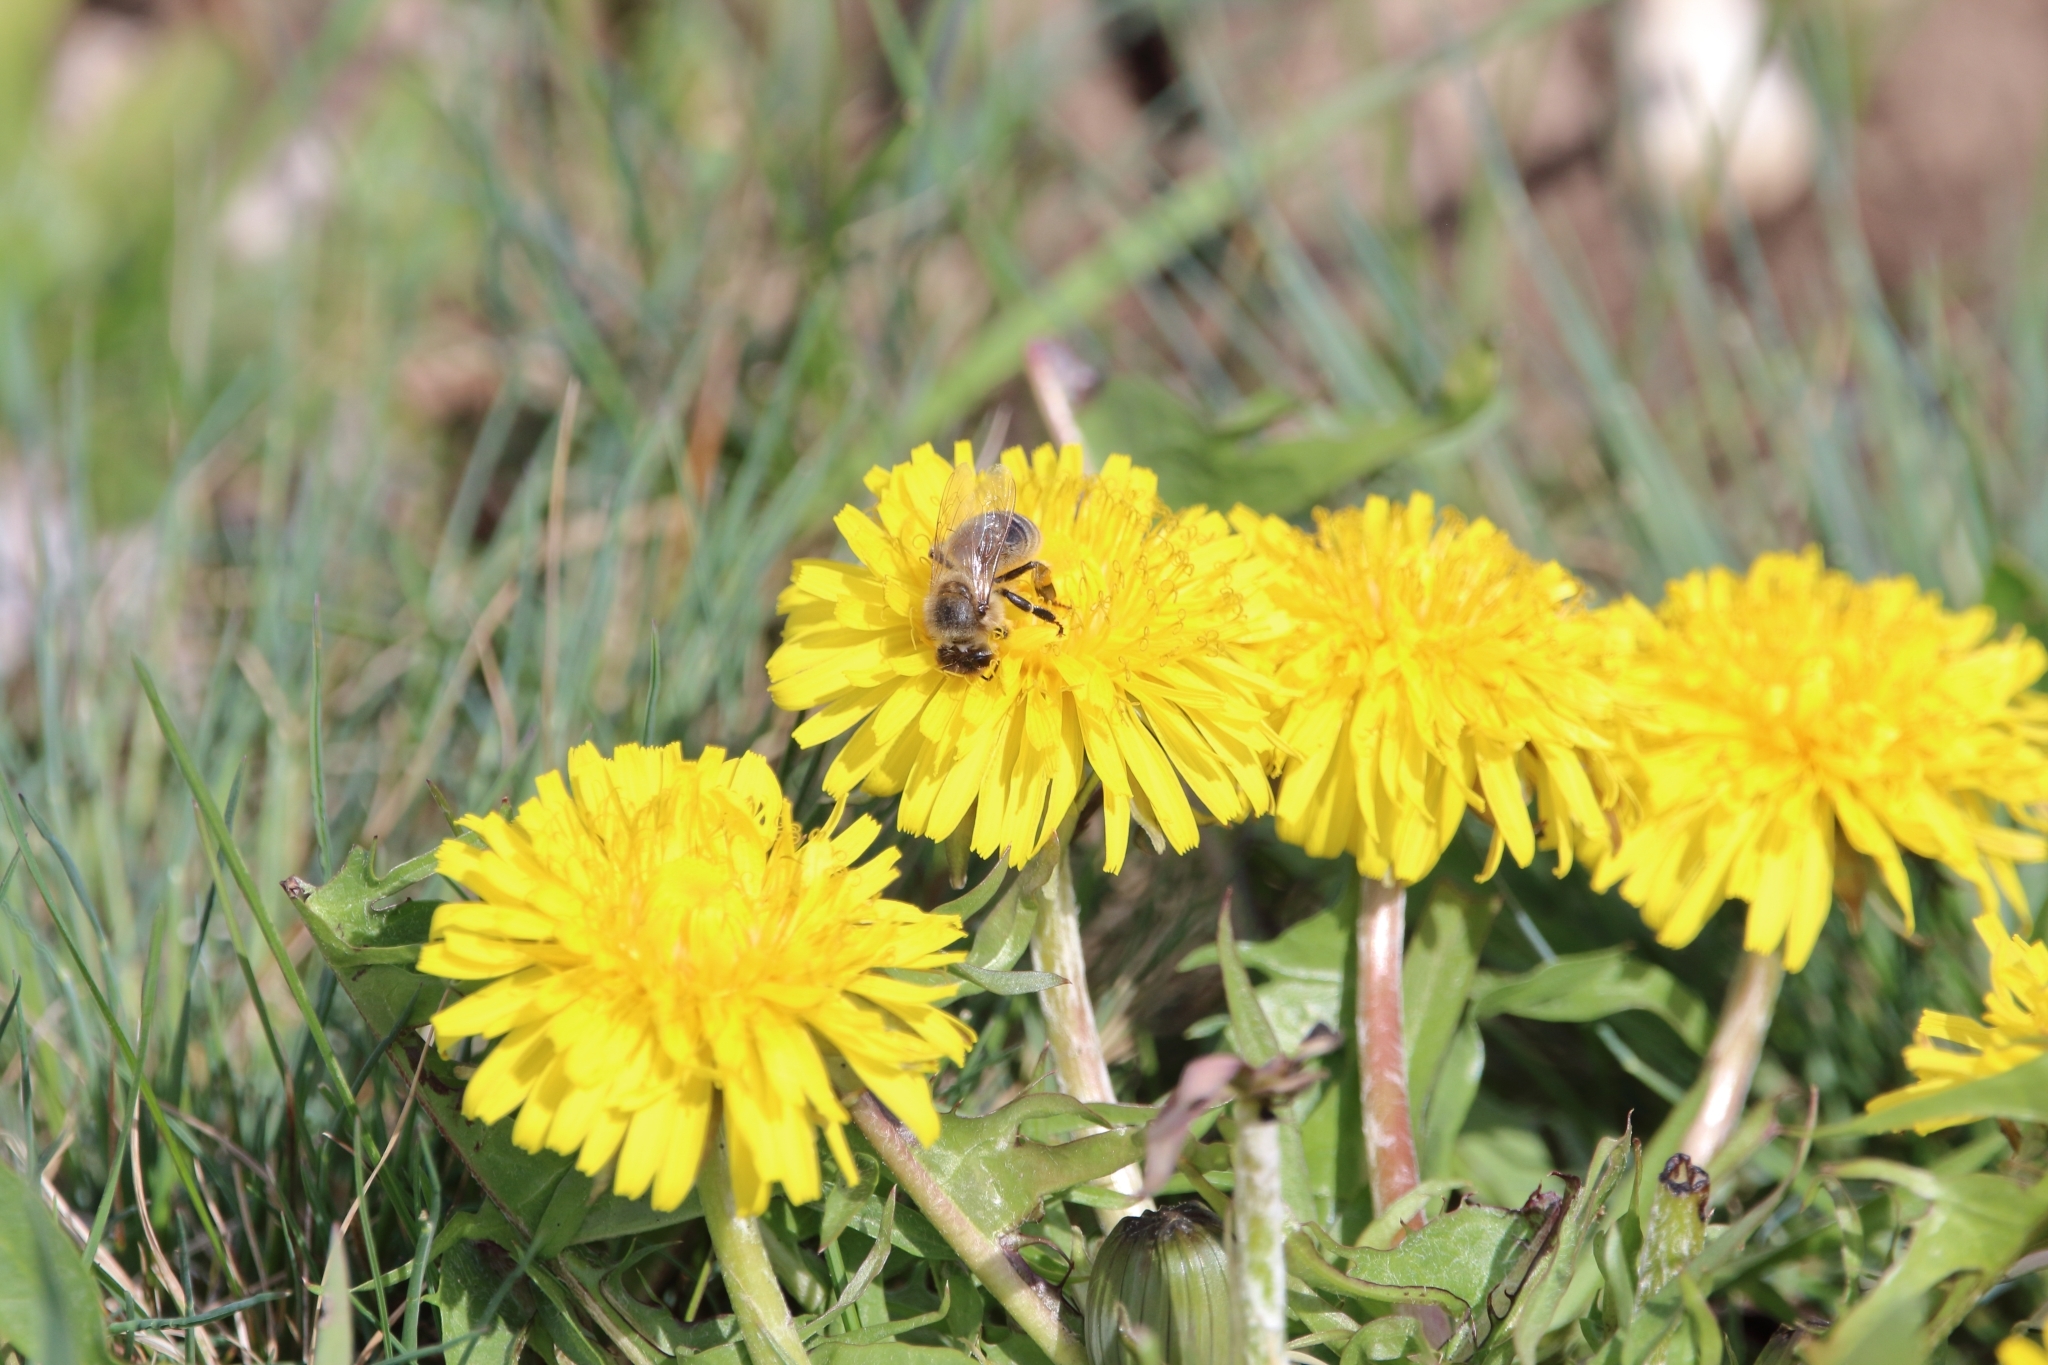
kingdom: Animalia
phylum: Arthropoda
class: Insecta
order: Hymenoptera
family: Apidae
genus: Apis
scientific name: Apis mellifera
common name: Honey bee
